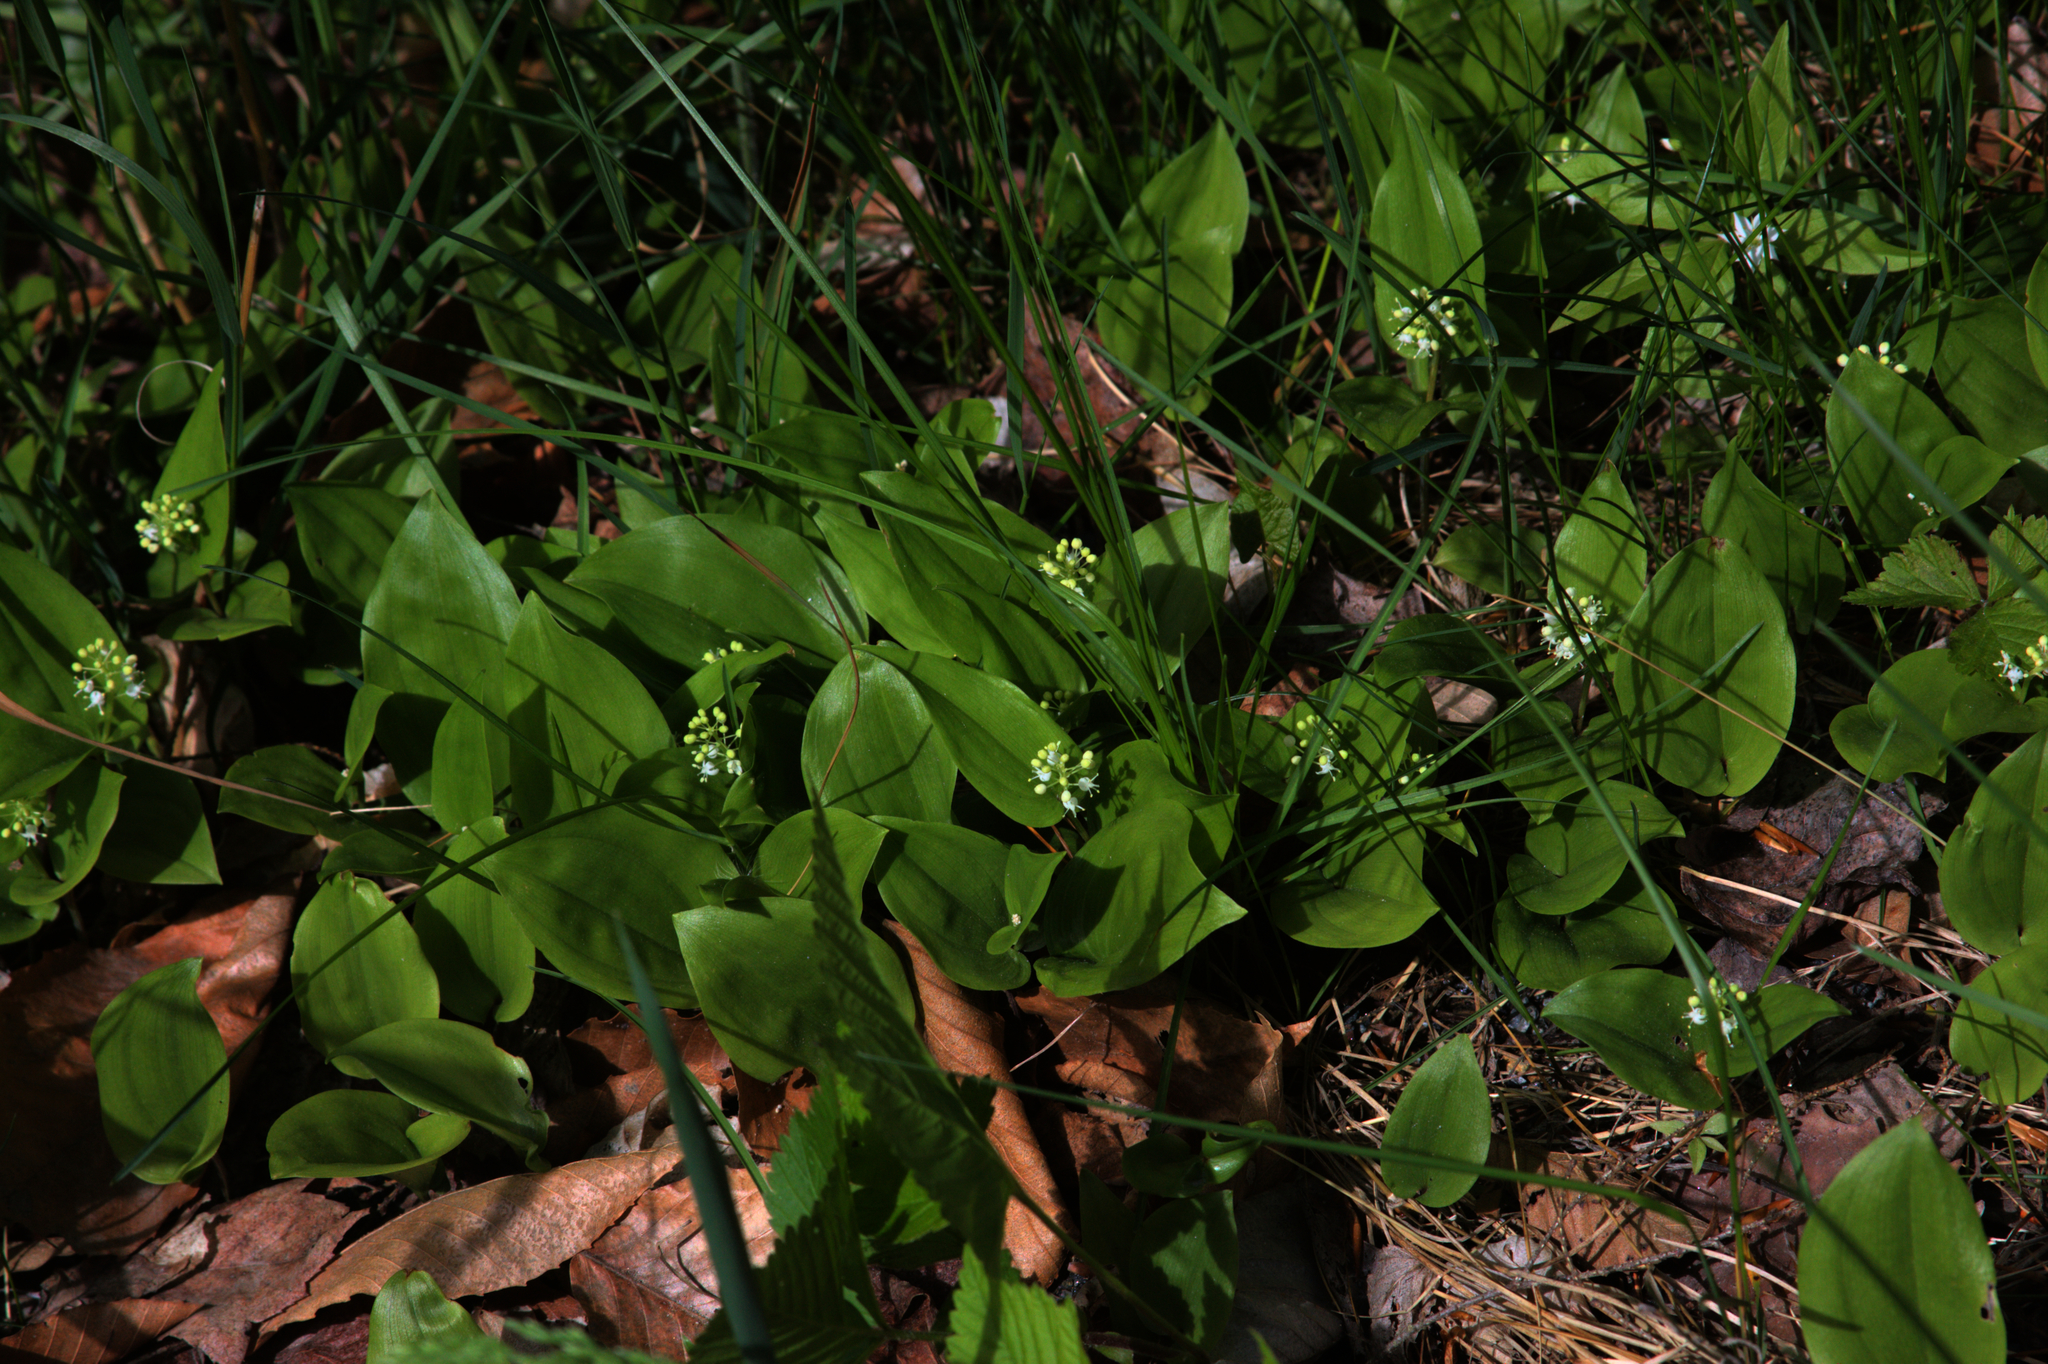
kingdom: Plantae
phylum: Tracheophyta
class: Liliopsida
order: Asparagales
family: Asparagaceae
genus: Maianthemum
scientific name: Maianthemum canadense
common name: False lily-of-the-valley
